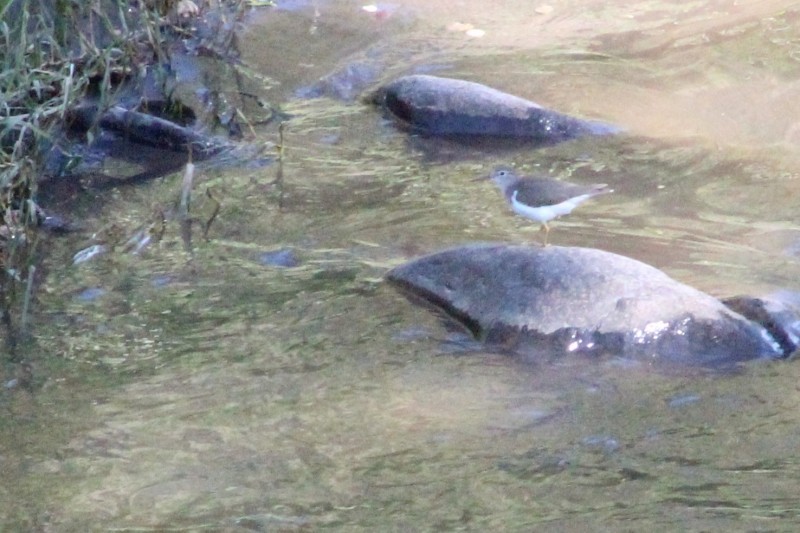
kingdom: Animalia
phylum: Chordata
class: Aves
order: Charadriiformes
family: Scolopacidae
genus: Actitis
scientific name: Actitis macularius
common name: Spotted sandpiper
